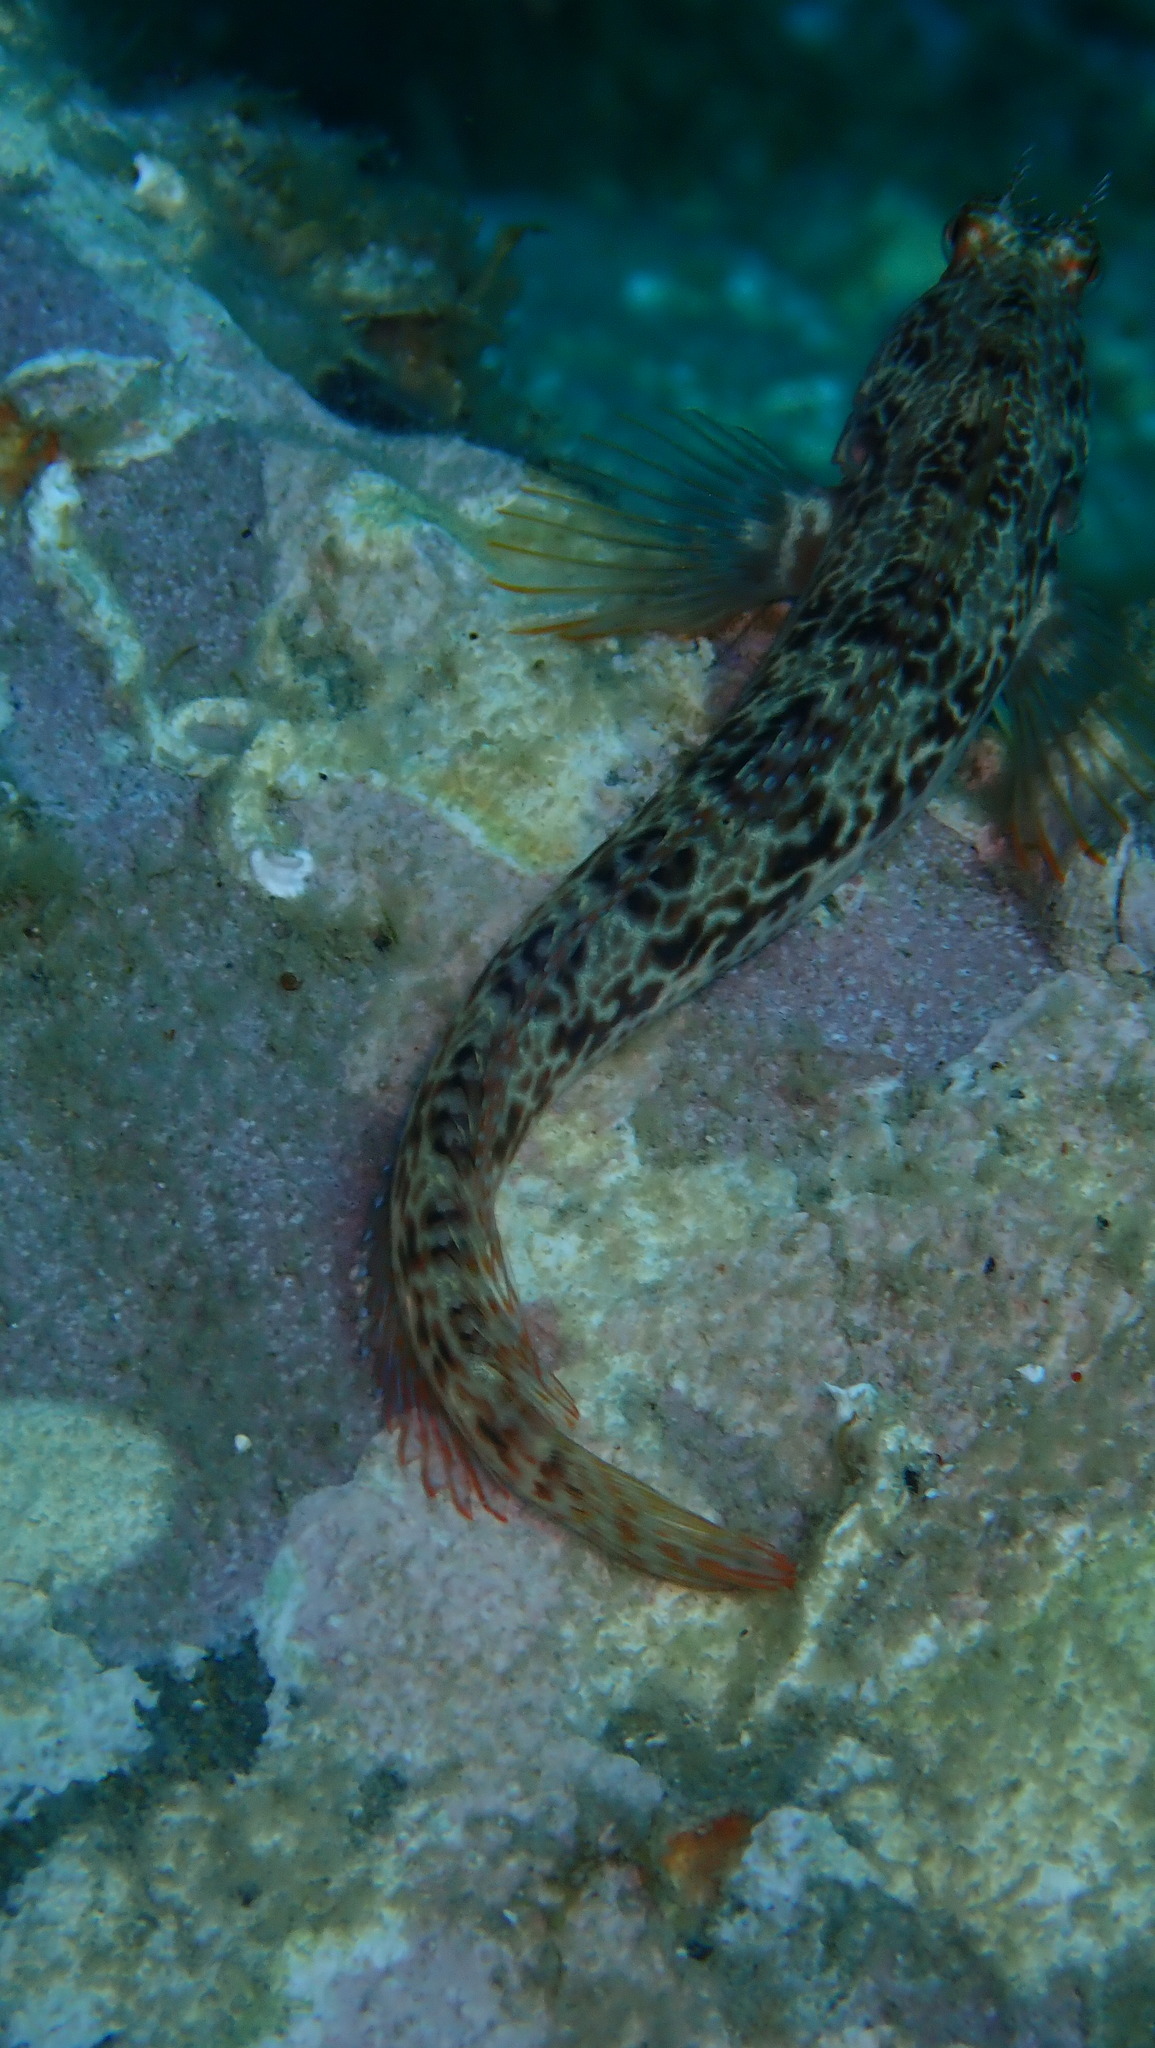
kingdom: Animalia
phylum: Chordata
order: Perciformes
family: Blenniidae
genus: Parablennius
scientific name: Parablennius pilicornis
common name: Ringneck blenny
